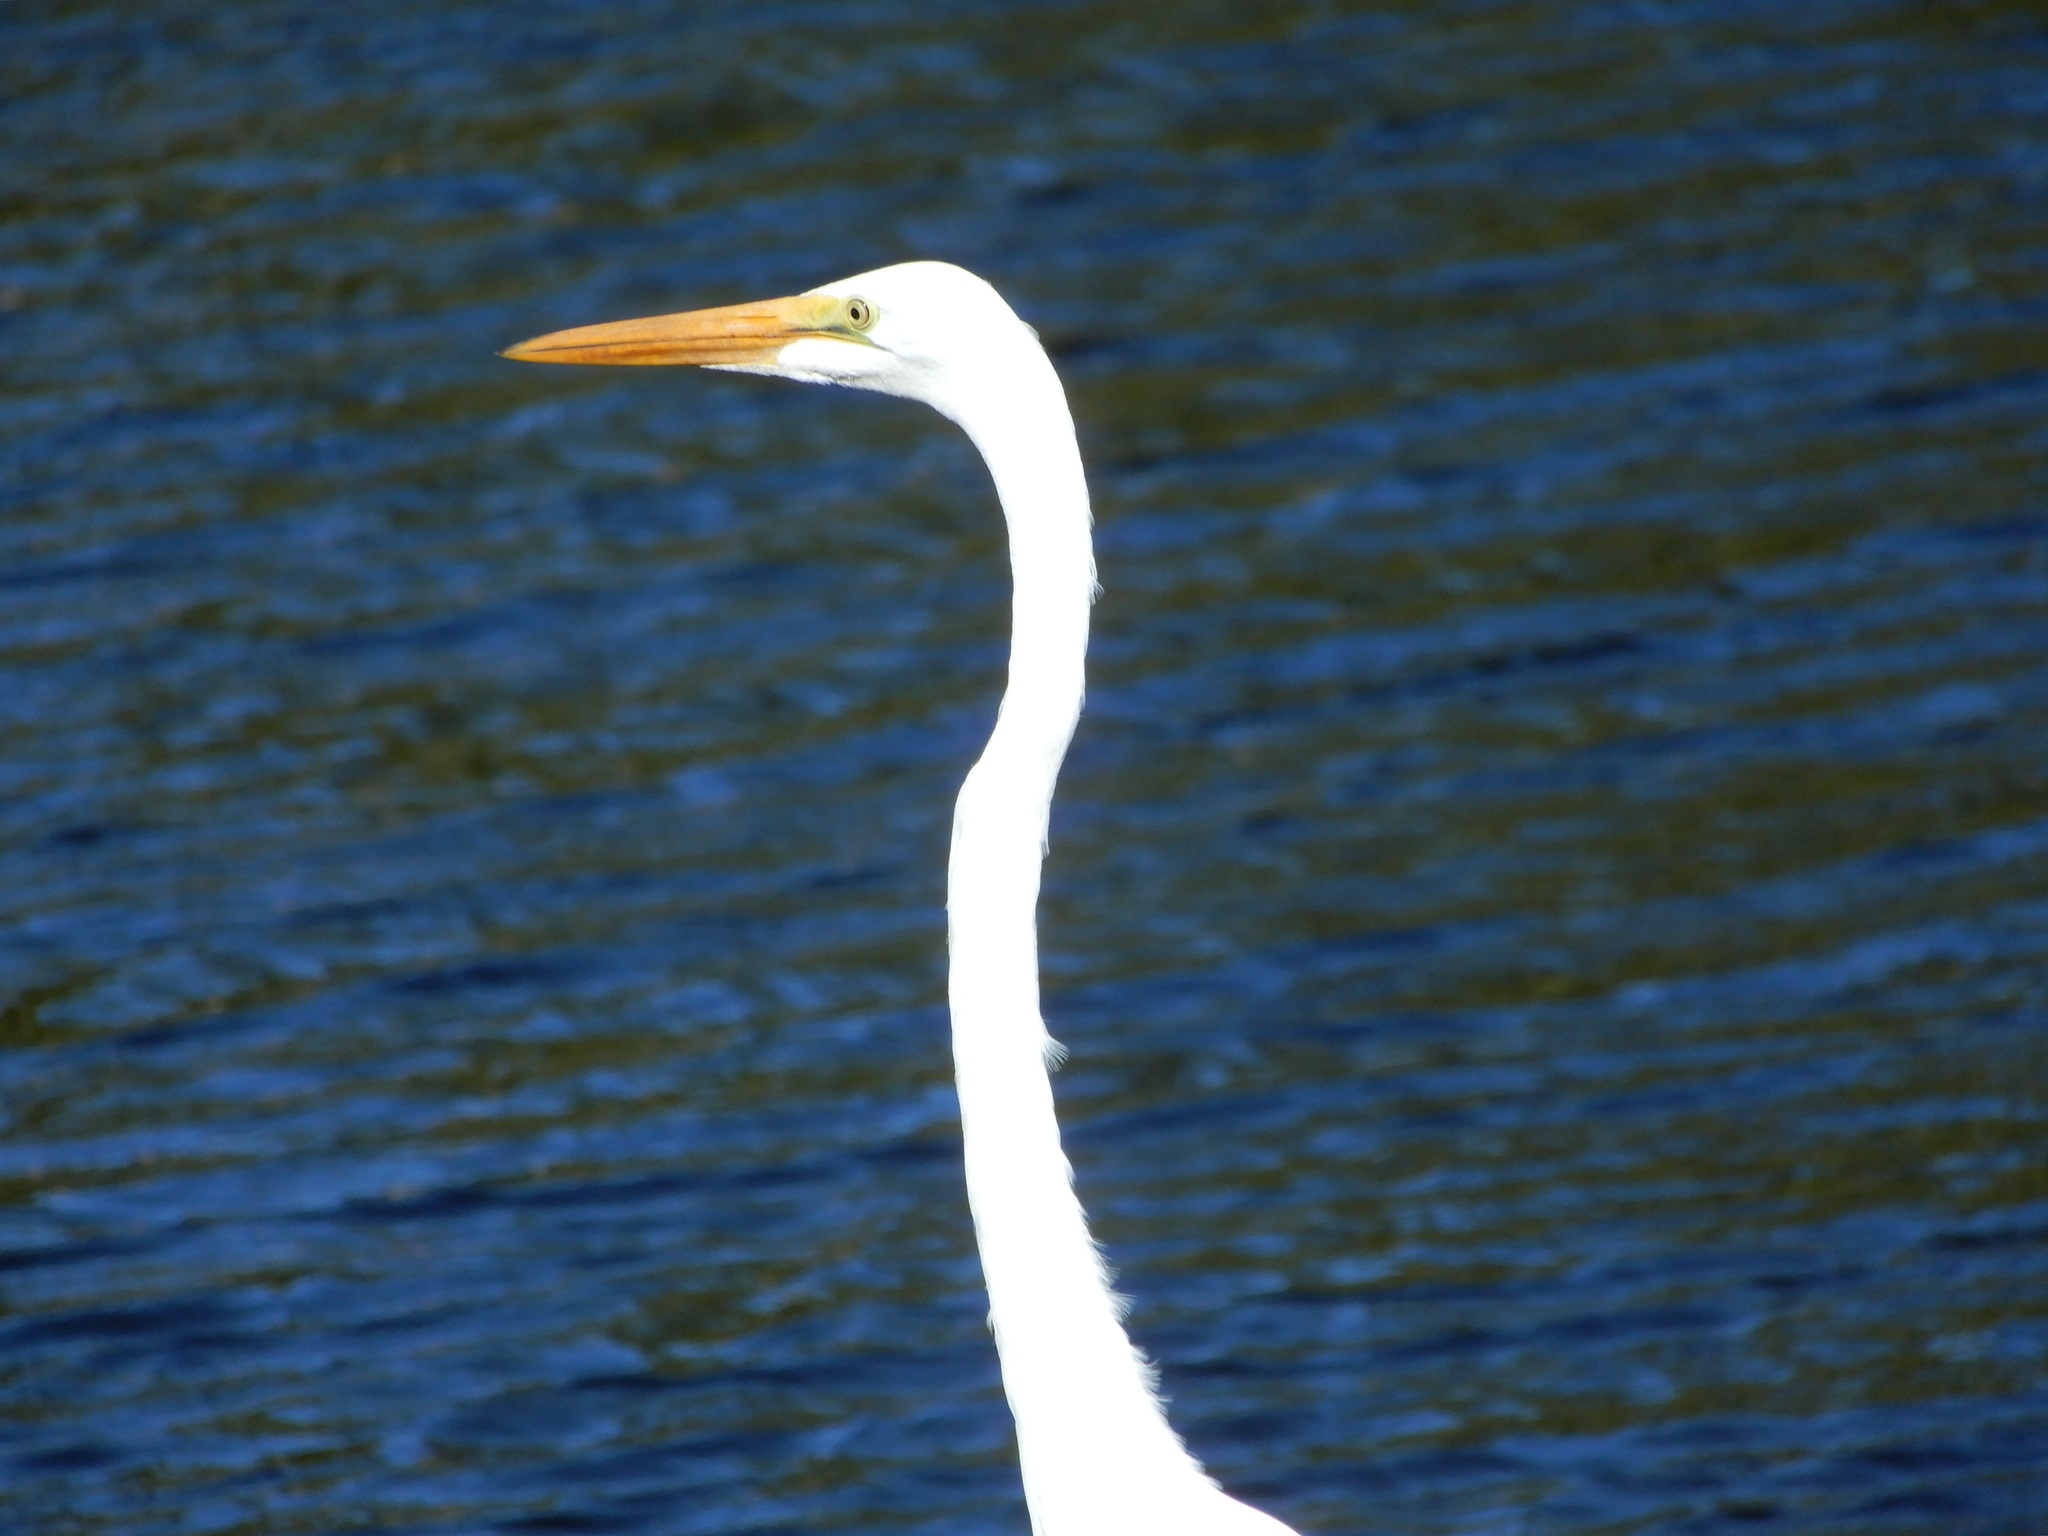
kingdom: Animalia
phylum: Chordata
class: Aves
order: Pelecaniformes
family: Ardeidae
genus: Ardea
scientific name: Ardea alba
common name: Great egret
